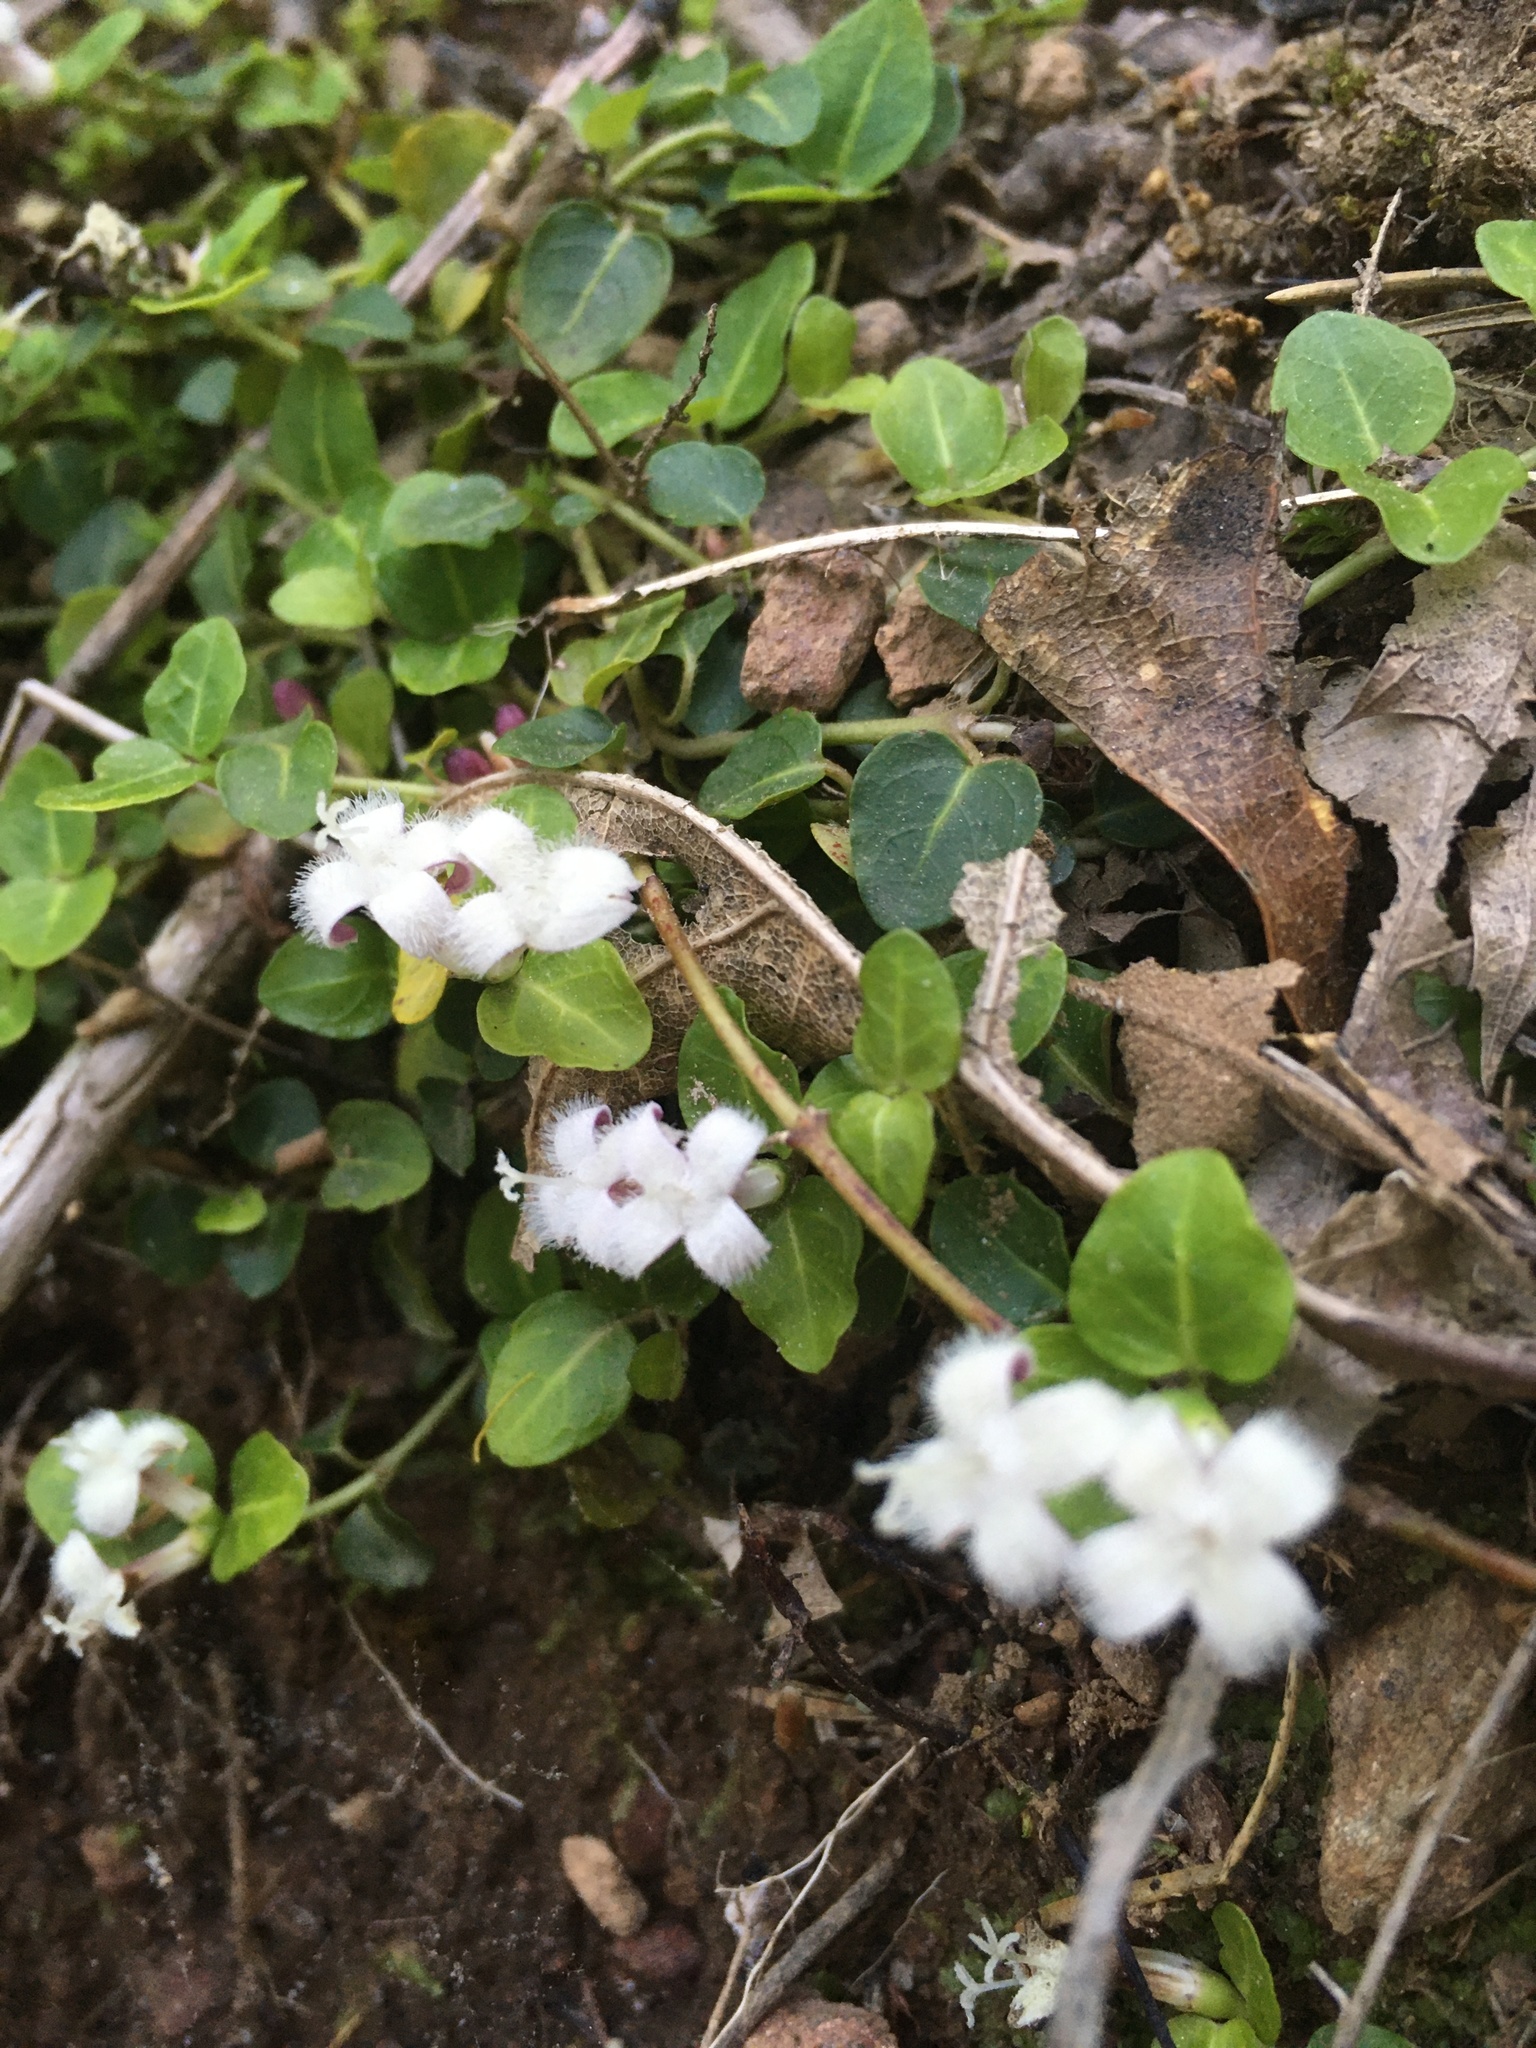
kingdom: Plantae
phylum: Tracheophyta
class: Magnoliopsida
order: Gentianales
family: Rubiaceae
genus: Mitchella
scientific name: Mitchella repens
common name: Partridge-berry
